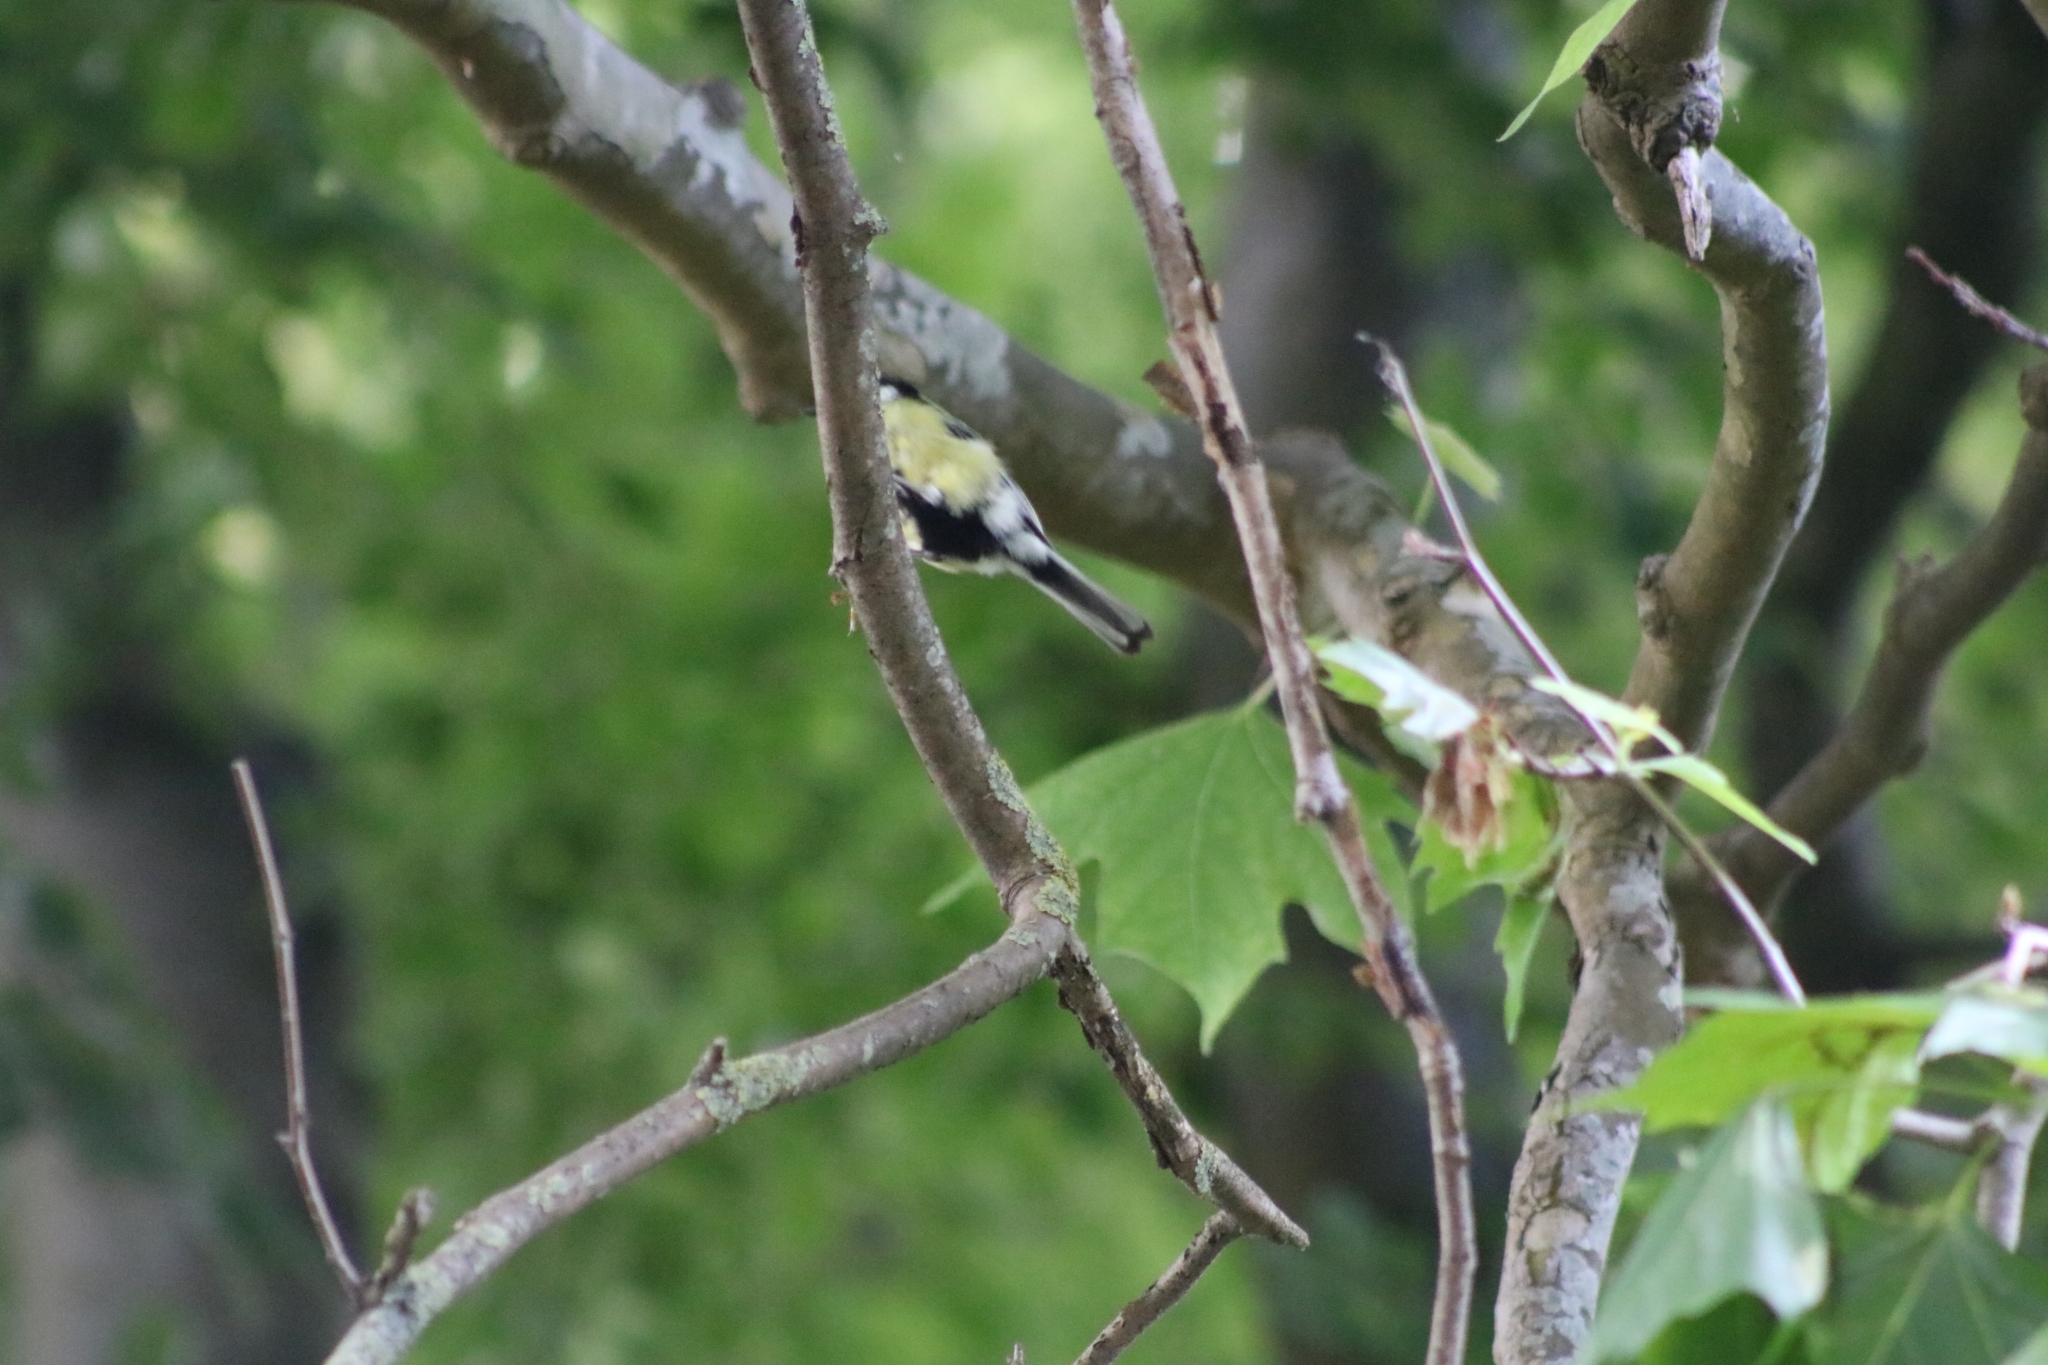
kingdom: Animalia
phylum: Chordata
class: Aves
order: Passeriformes
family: Paridae
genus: Parus
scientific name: Parus major
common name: Great tit
